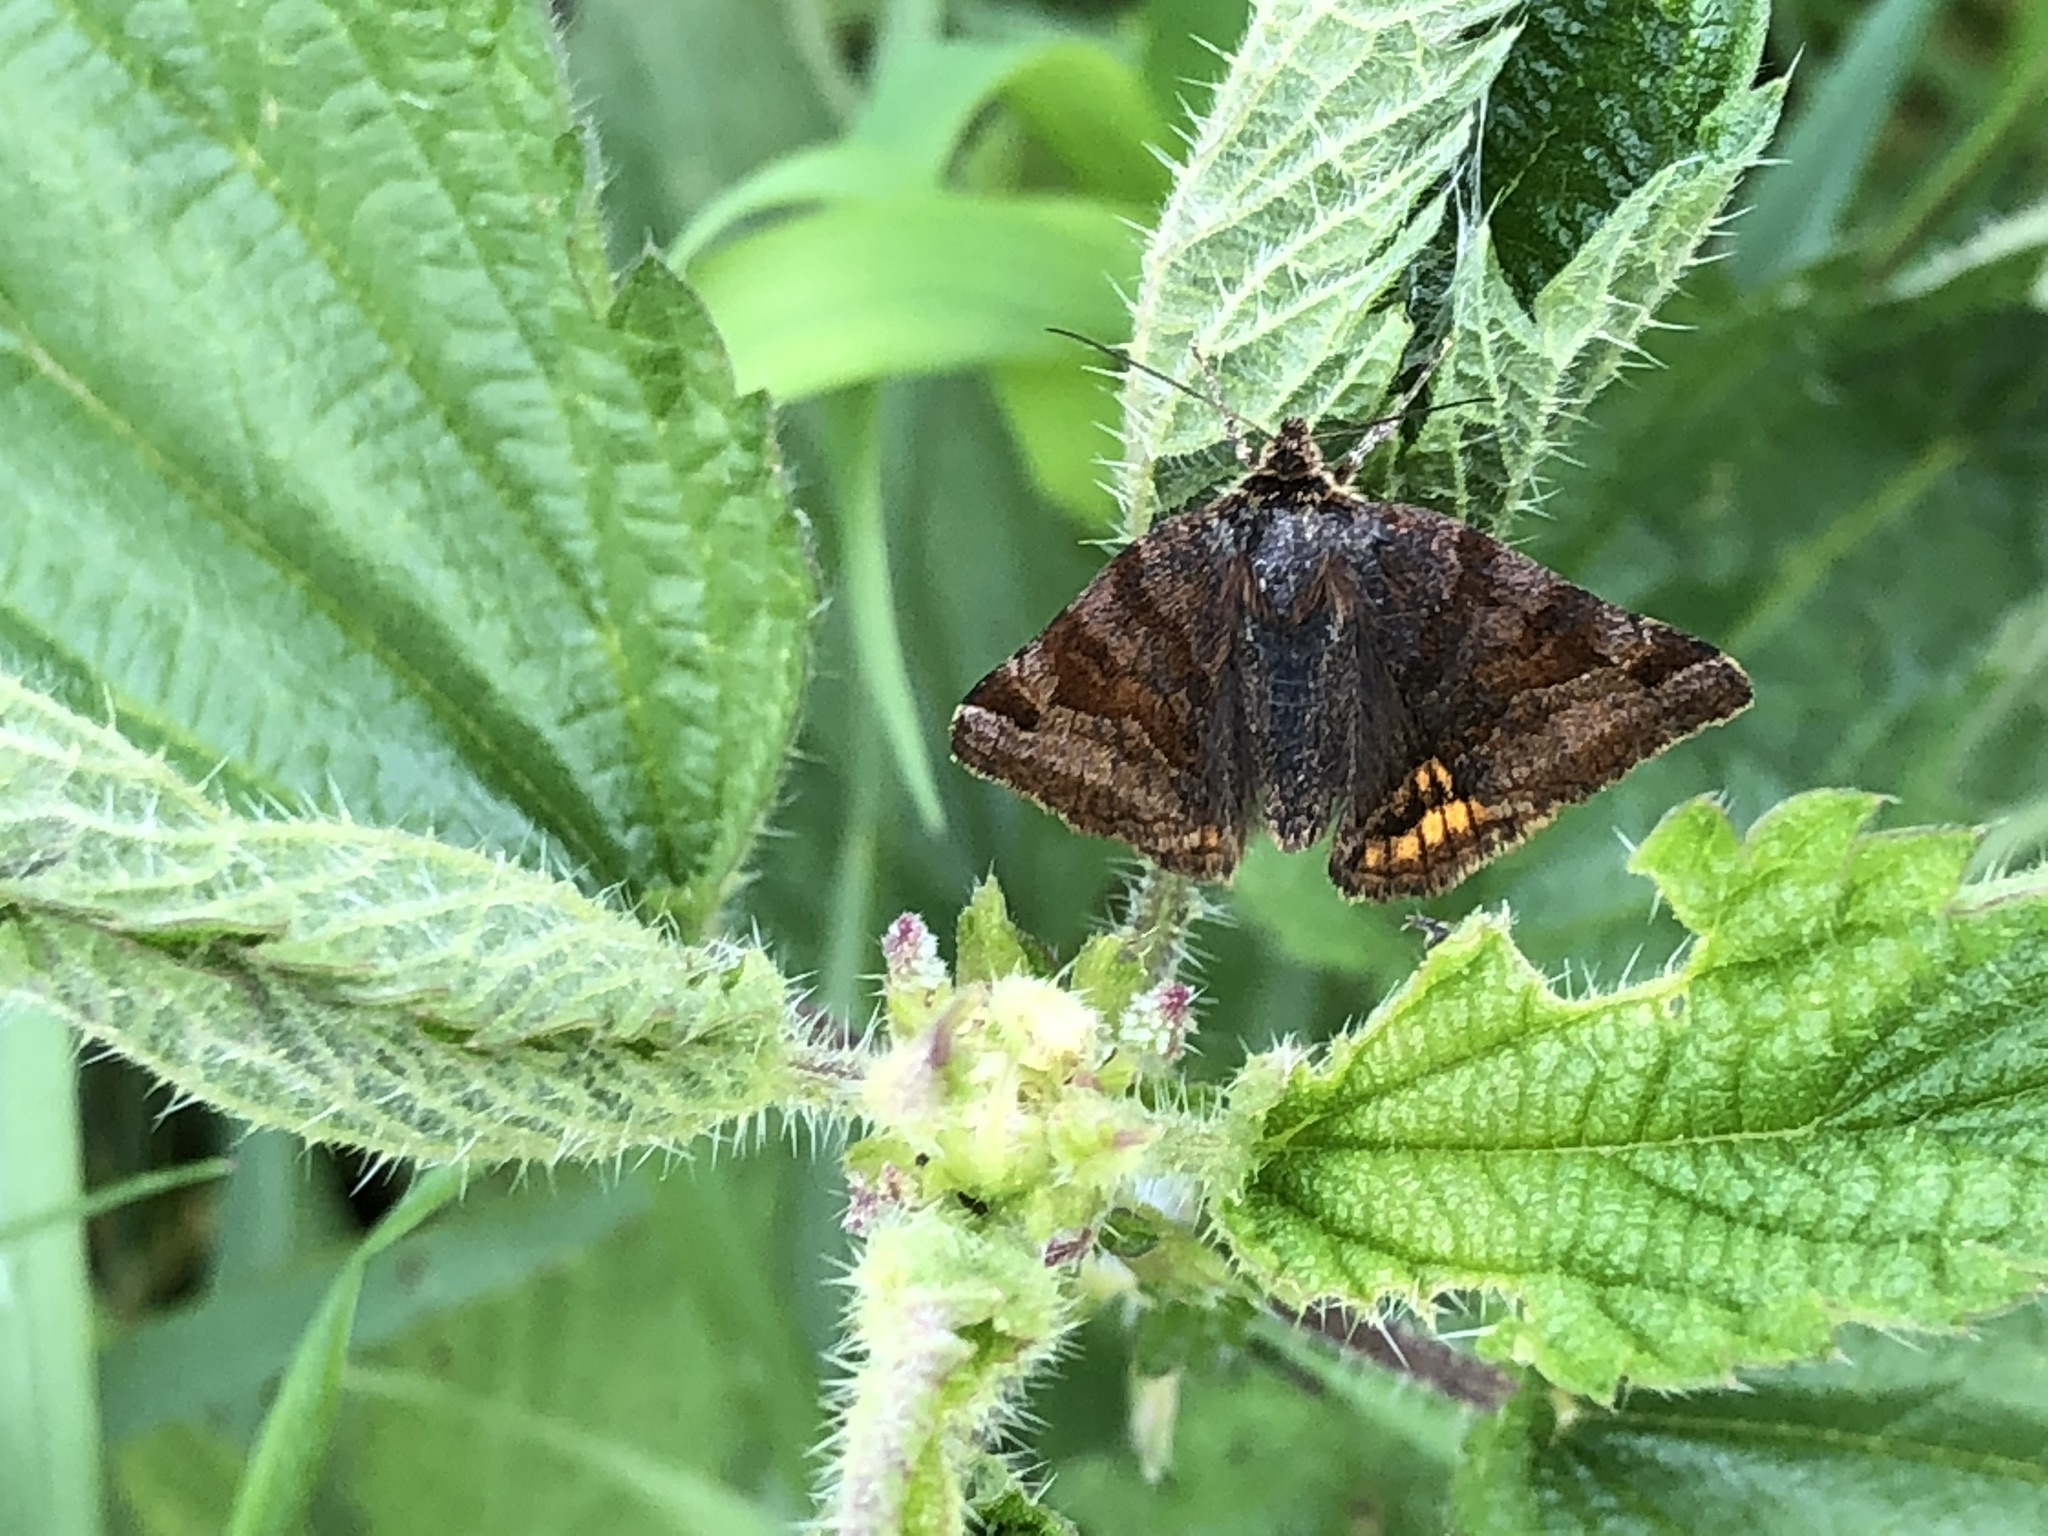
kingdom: Animalia
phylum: Arthropoda
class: Insecta
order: Lepidoptera
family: Erebidae
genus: Euclidia
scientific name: Euclidia glyphica
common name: Burnet companion
